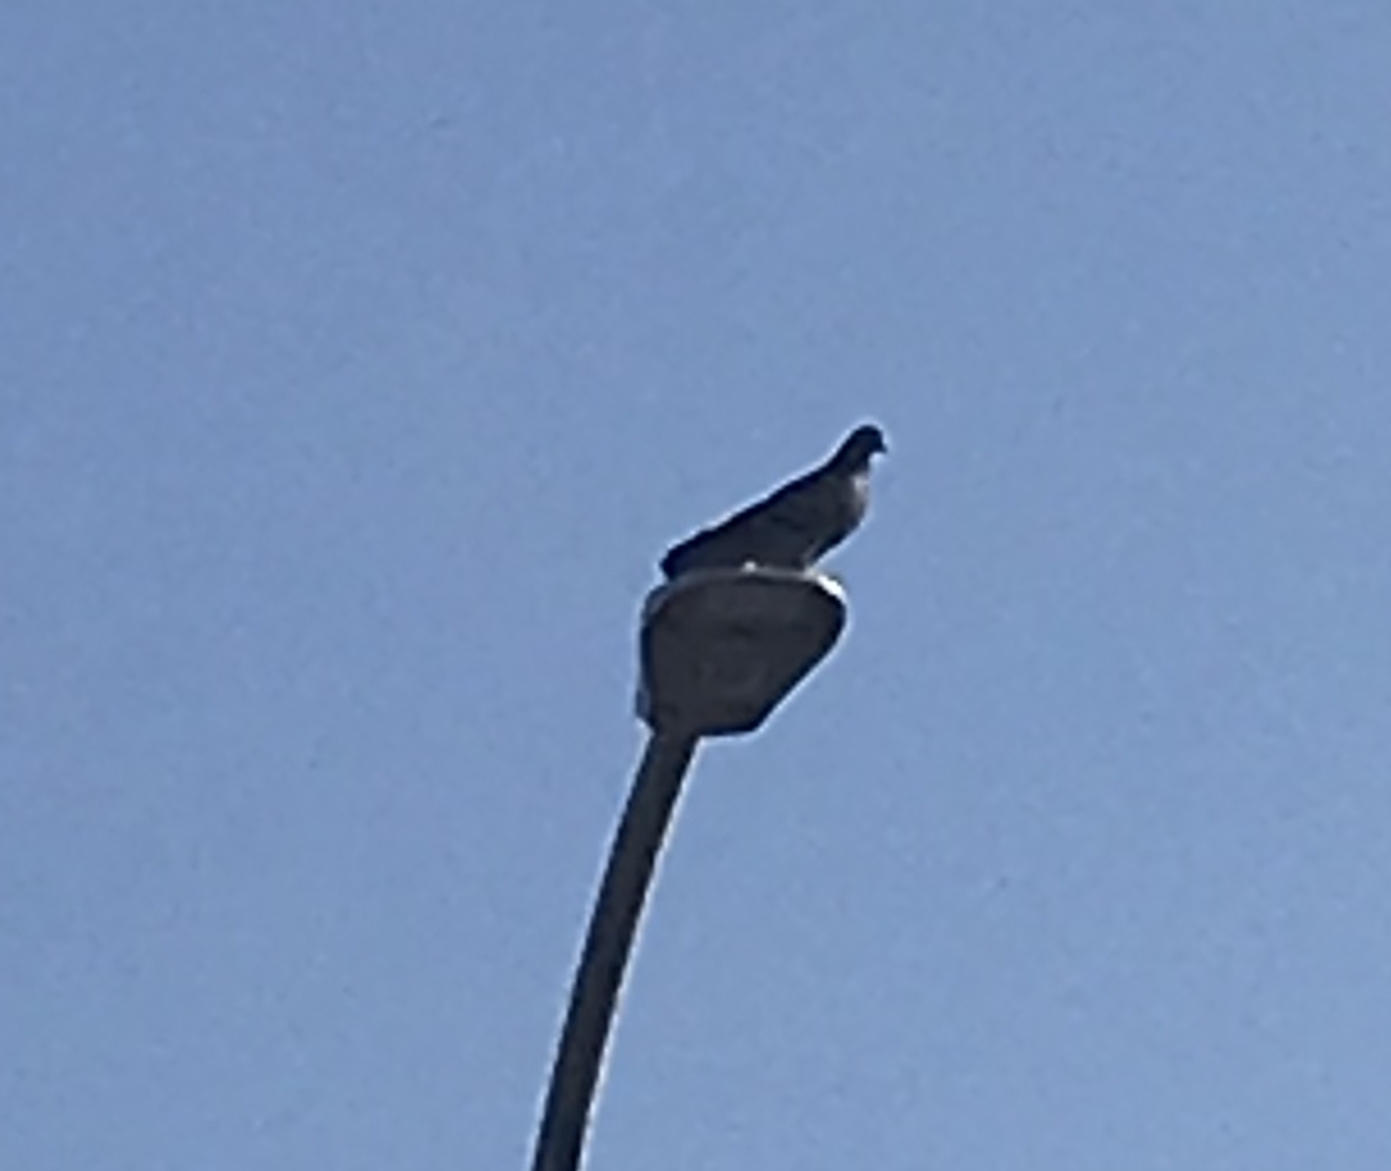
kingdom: Animalia
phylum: Chordata
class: Aves
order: Columbiformes
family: Columbidae
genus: Columba
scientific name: Columba livia
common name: Rock pigeon
